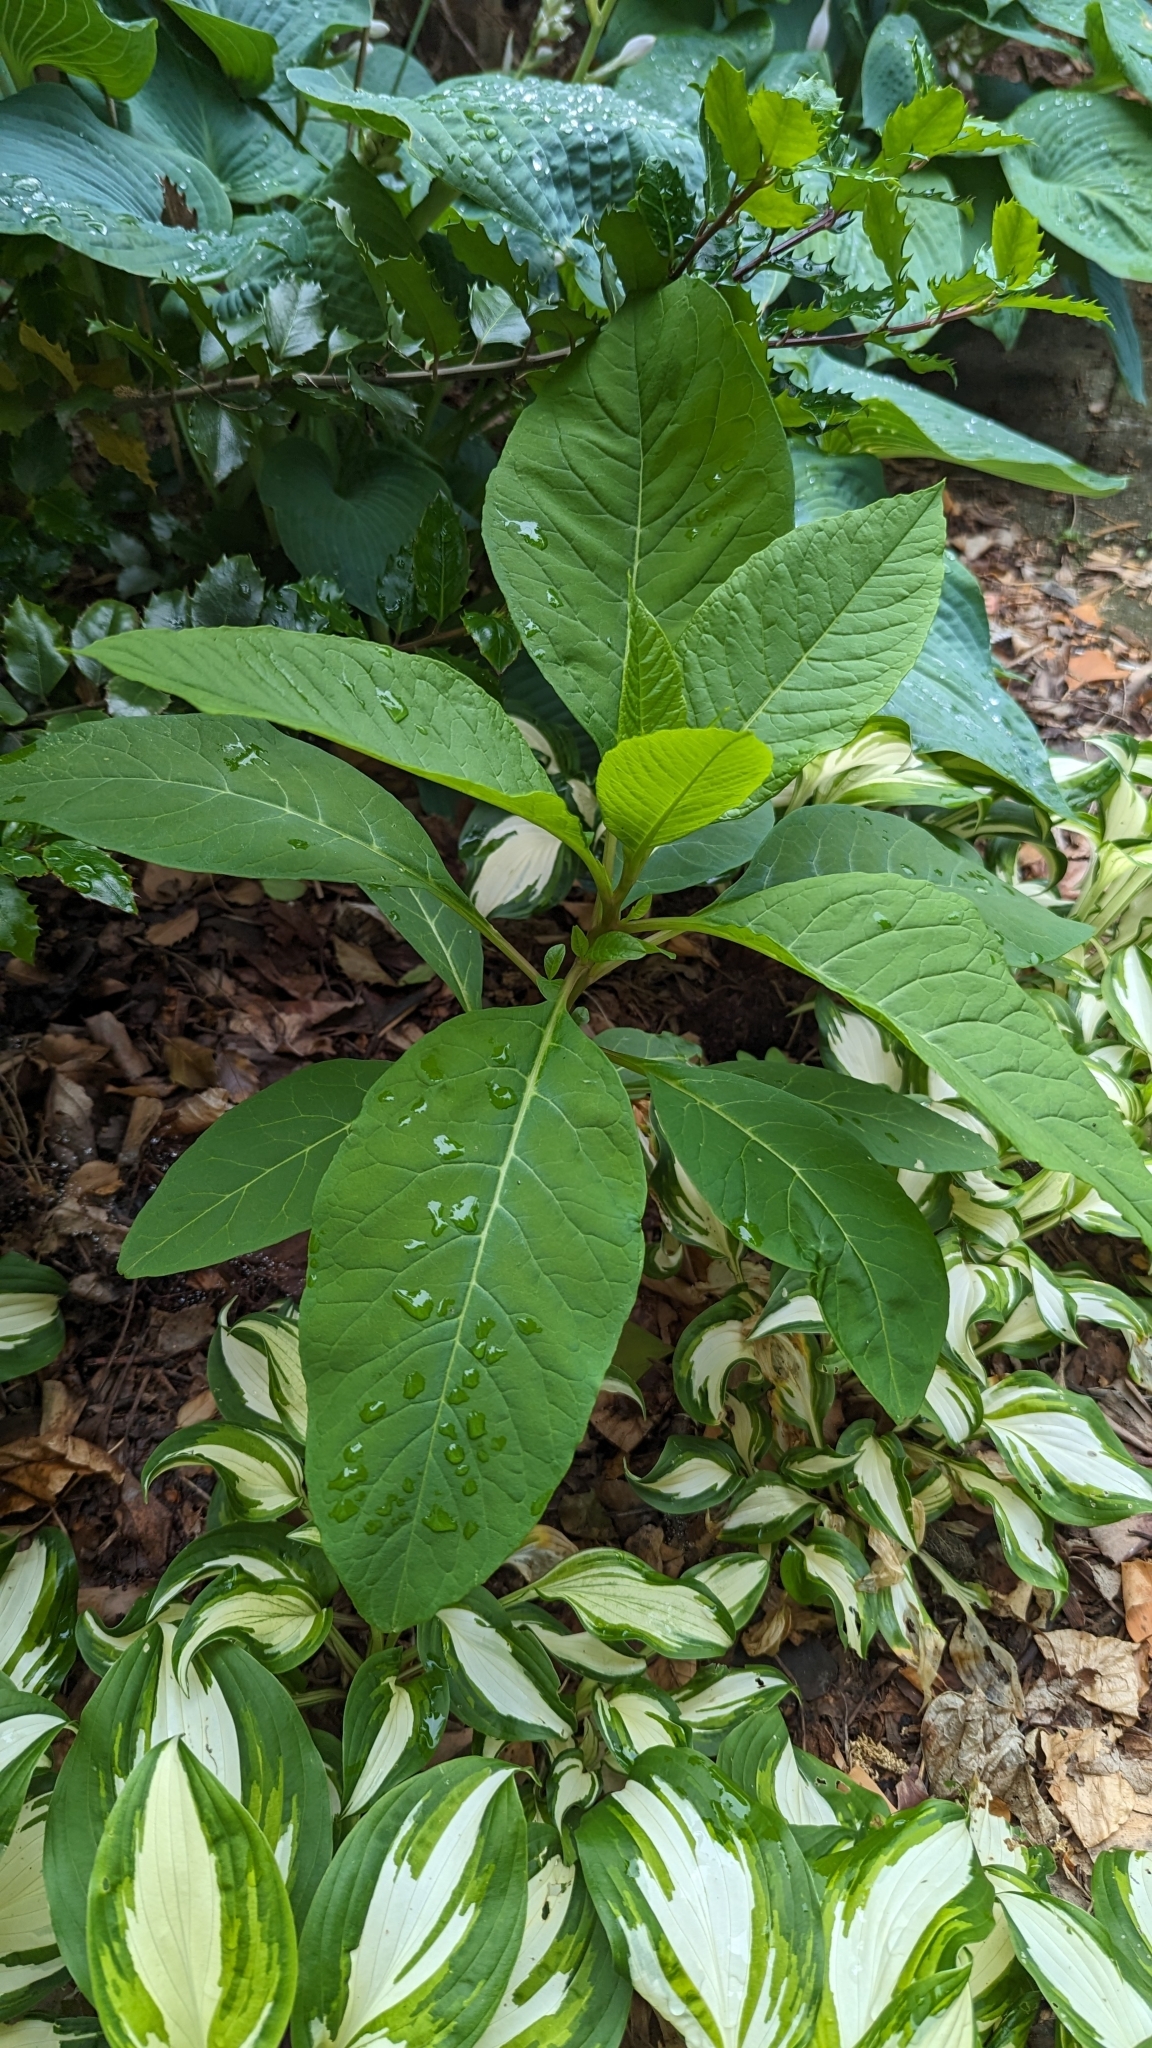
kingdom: Plantae
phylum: Tracheophyta
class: Magnoliopsida
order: Caryophyllales
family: Phytolaccaceae
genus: Phytolacca
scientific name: Phytolacca americana
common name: American pokeweed
